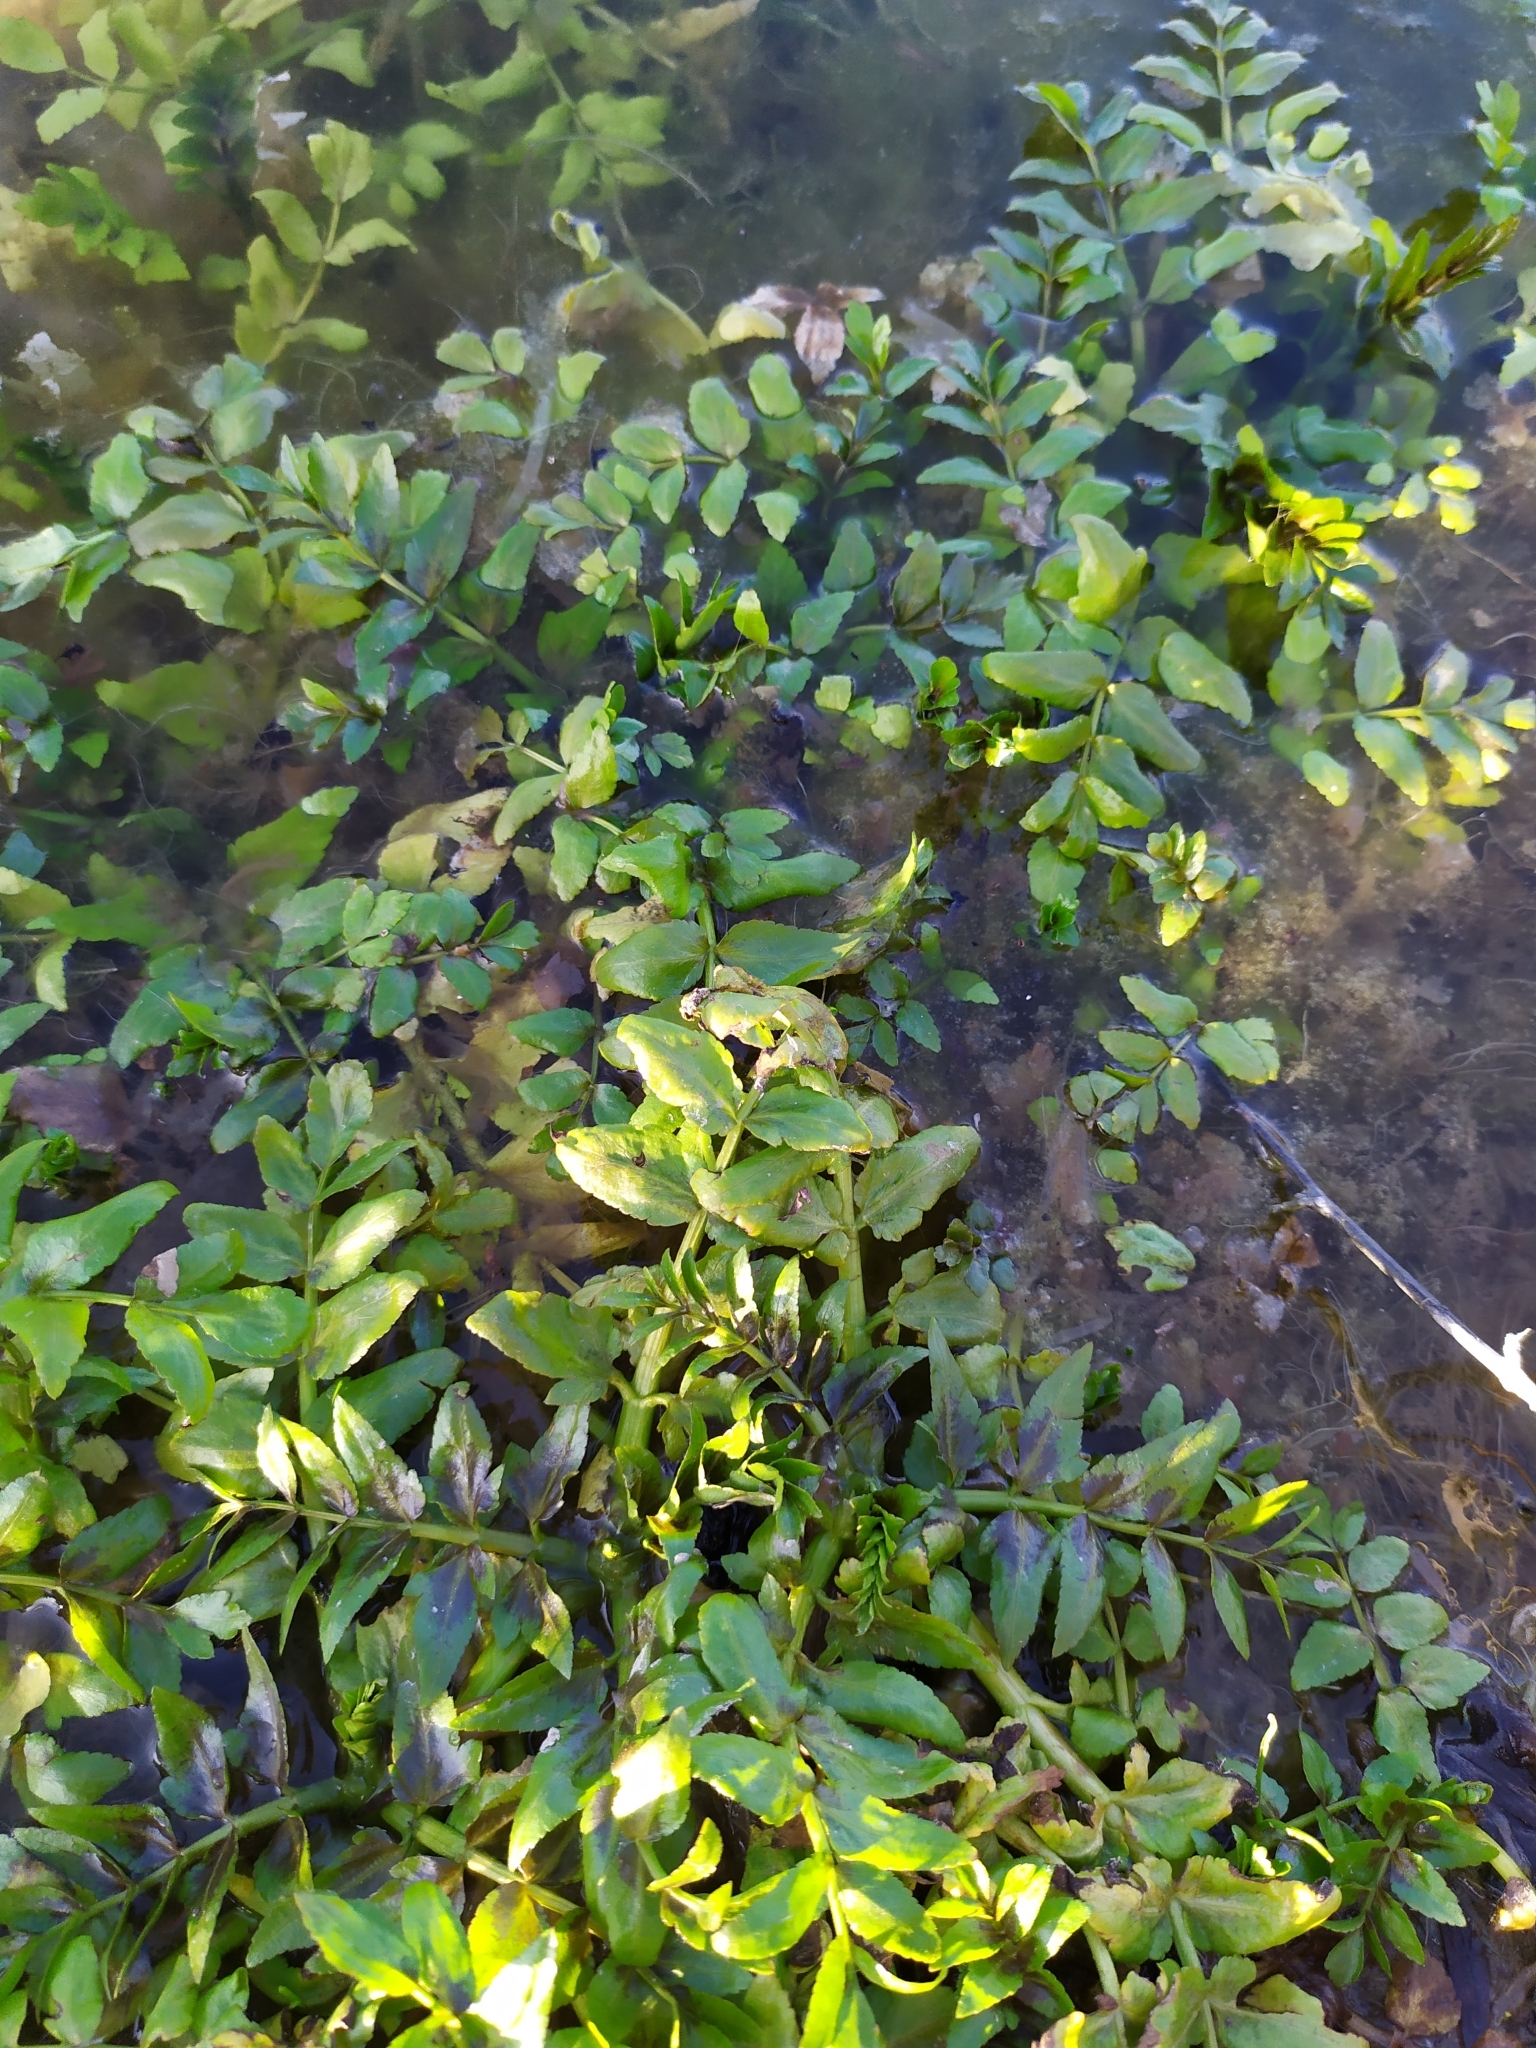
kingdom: Plantae
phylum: Tracheophyta
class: Magnoliopsida
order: Apiales
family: Apiaceae
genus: Berula
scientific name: Berula erecta
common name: Lesser water-parsnip
